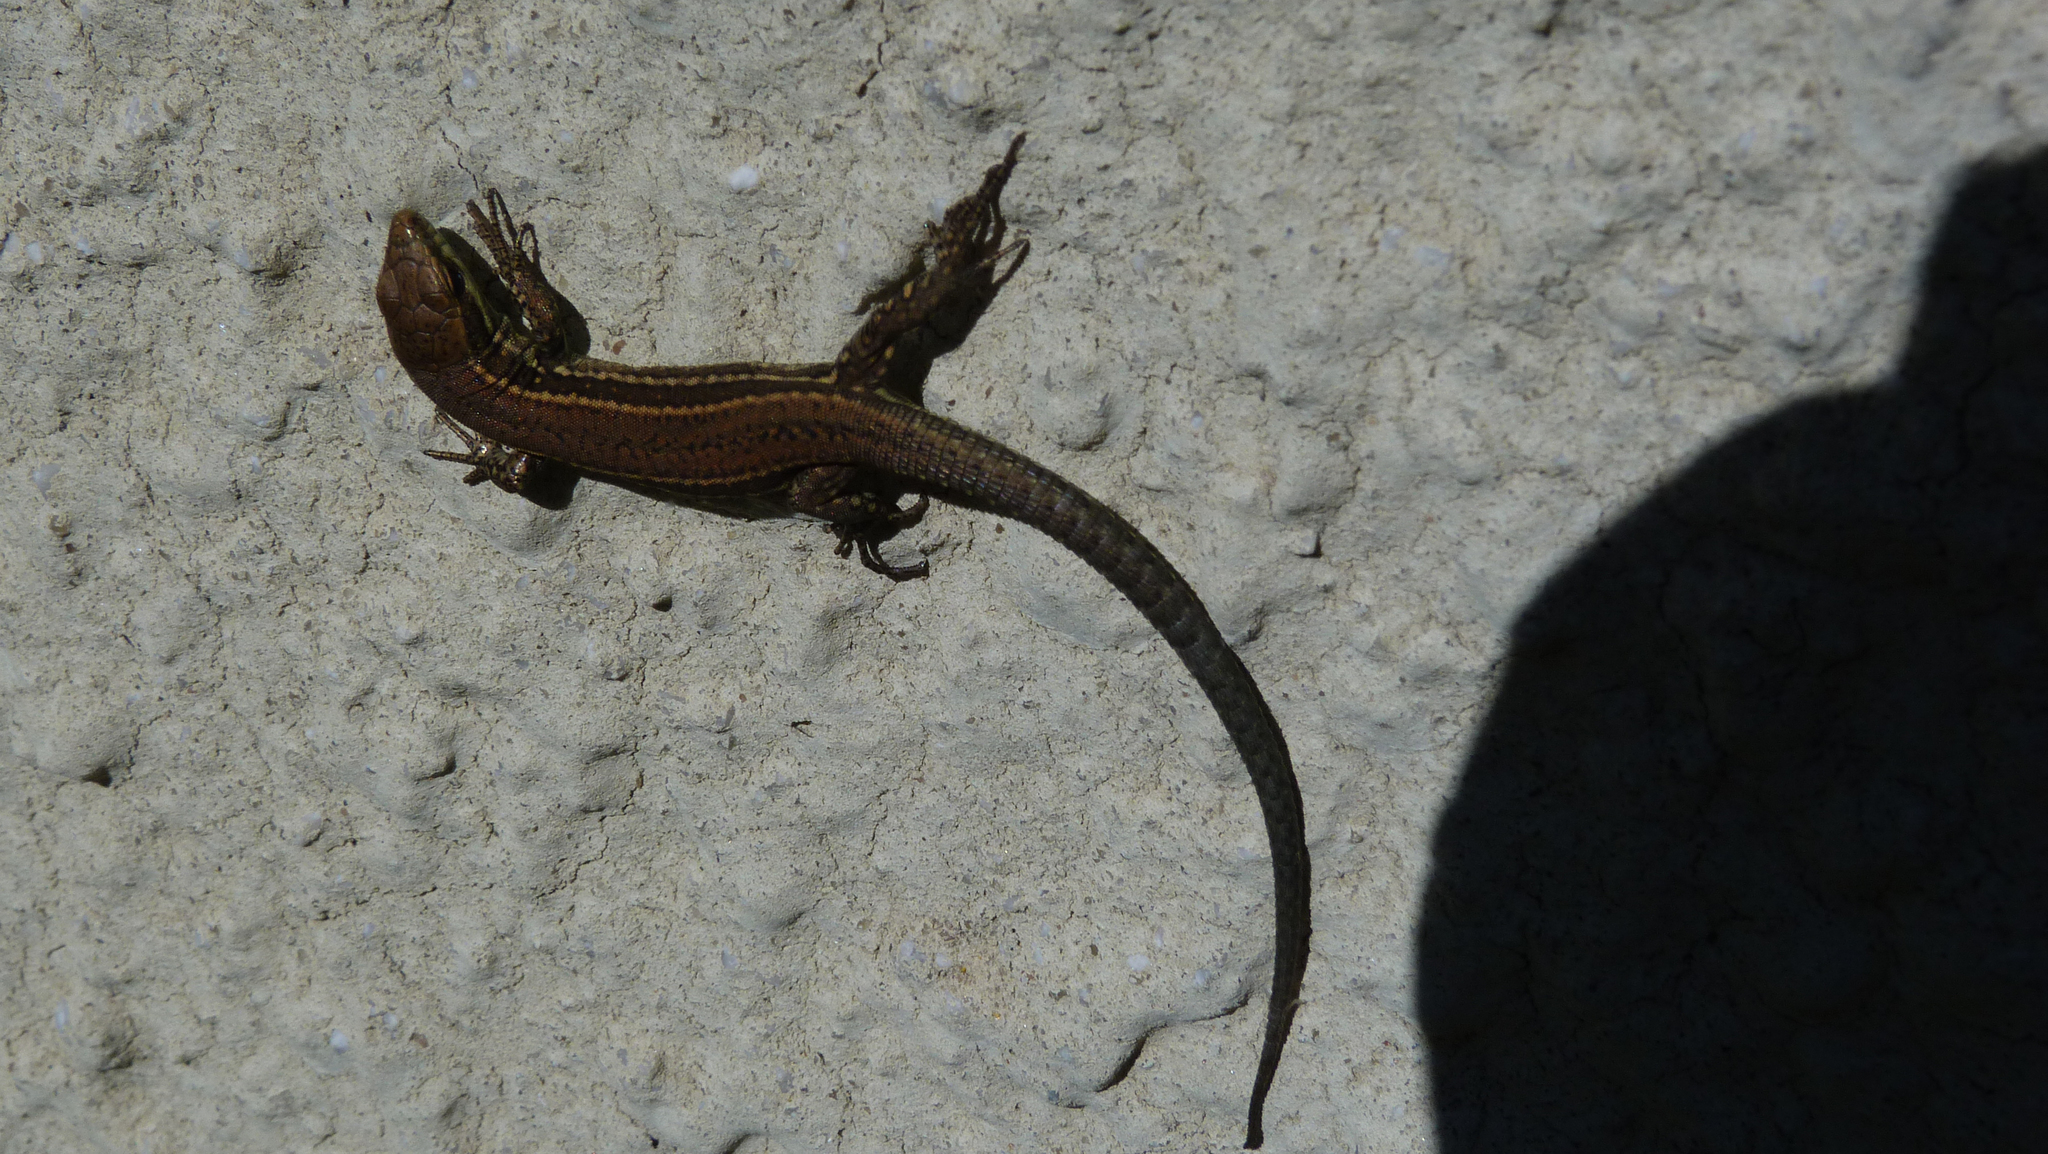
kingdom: Animalia
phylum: Chordata
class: Squamata
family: Lacertidae
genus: Podarcis
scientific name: Podarcis muralis
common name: Common wall lizard
